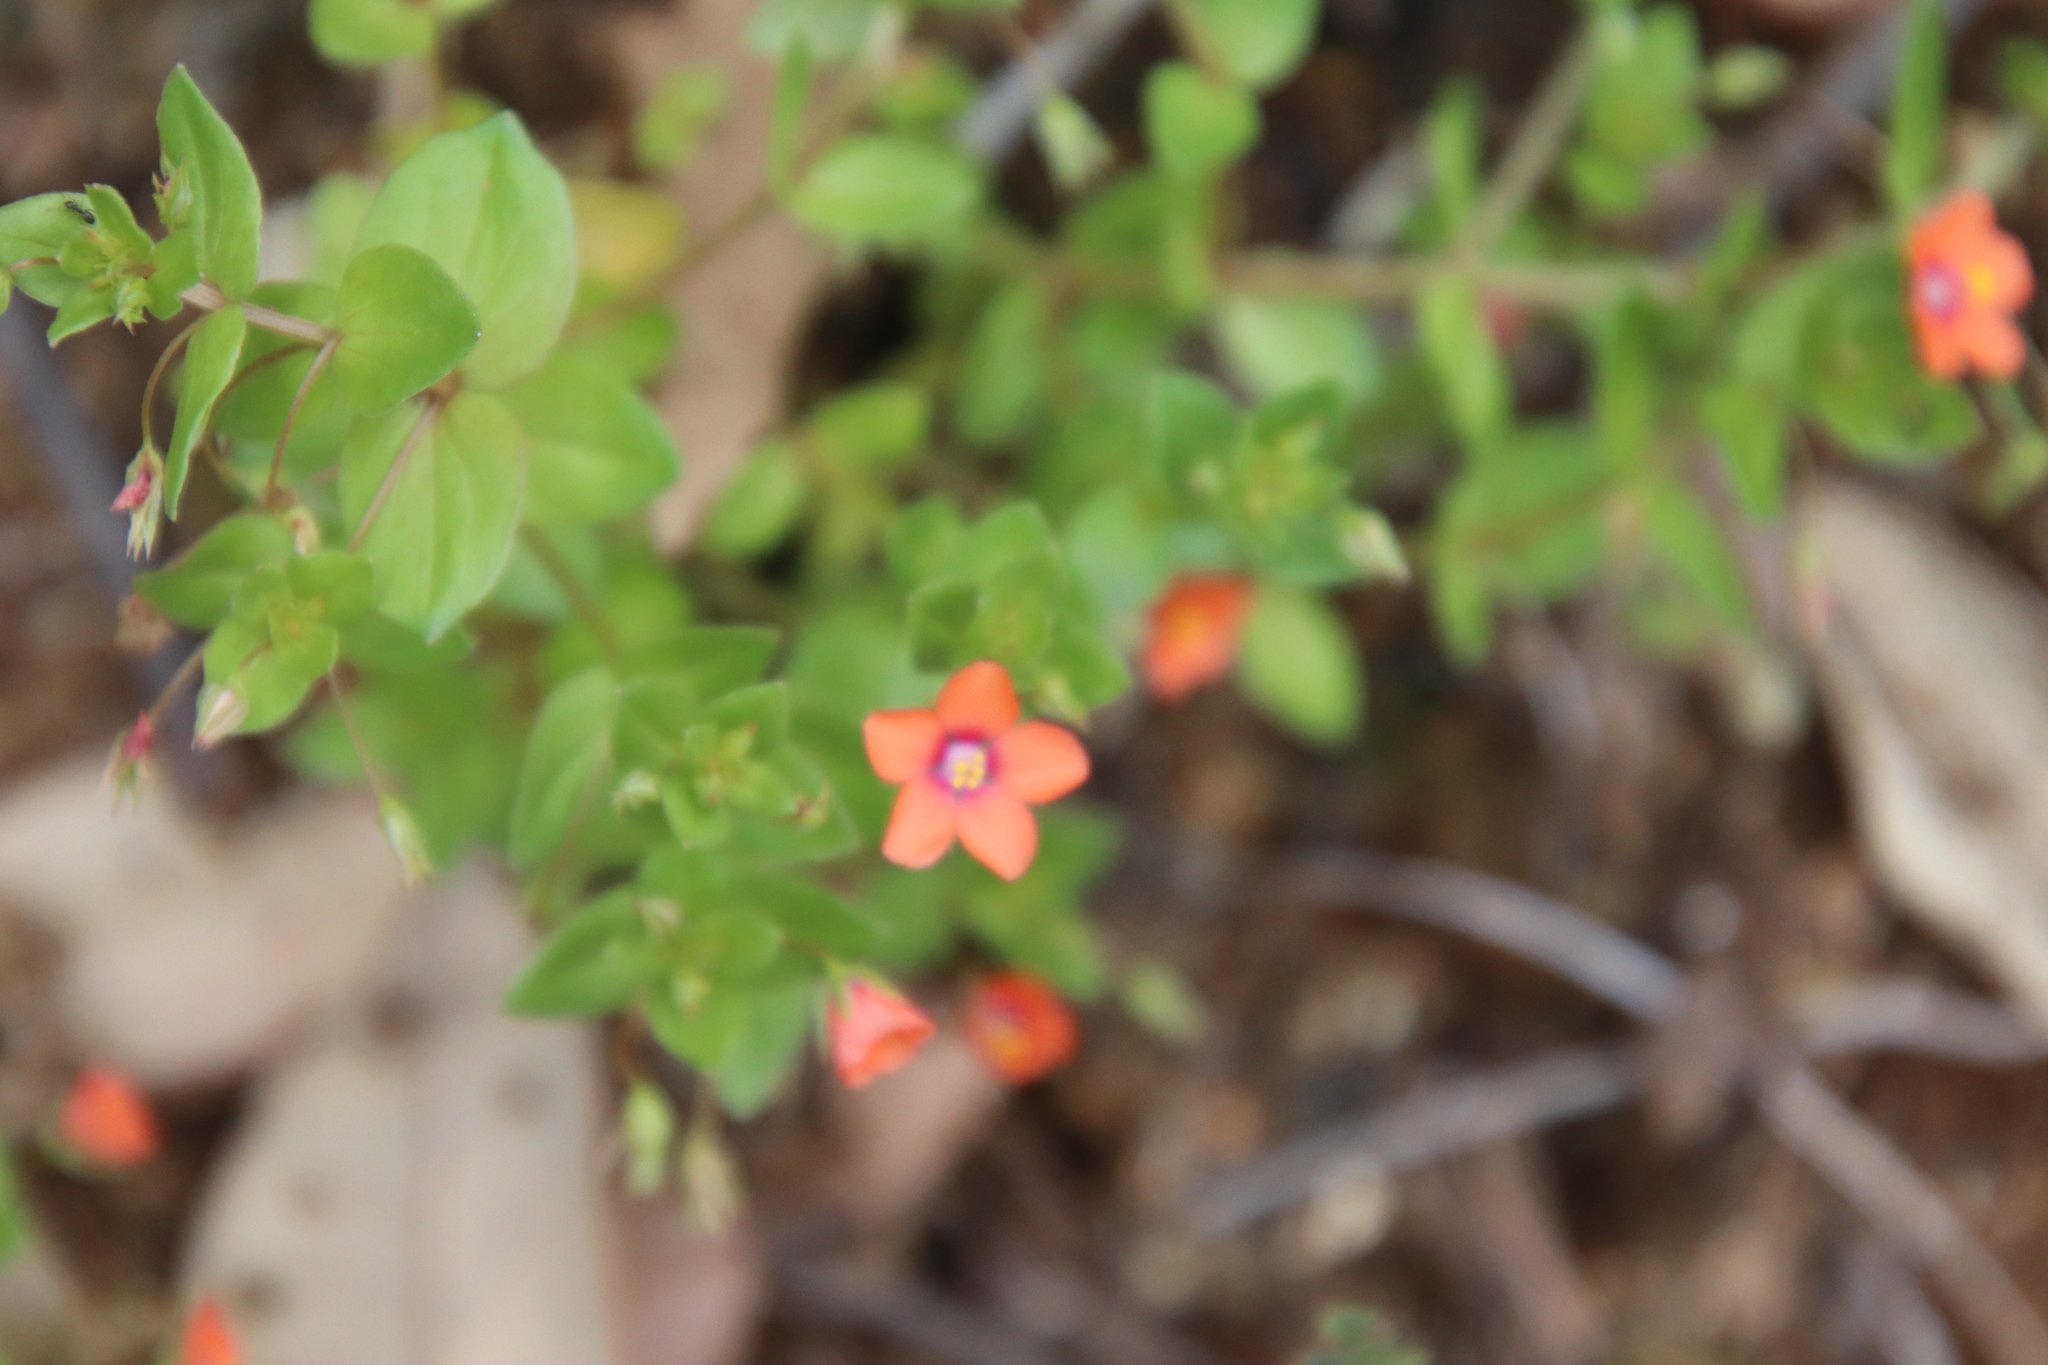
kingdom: Plantae
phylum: Tracheophyta
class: Magnoliopsida
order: Ericales
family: Primulaceae
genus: Lysimachia
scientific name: Lysimachia arvensis
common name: Scarlet pimpernel
